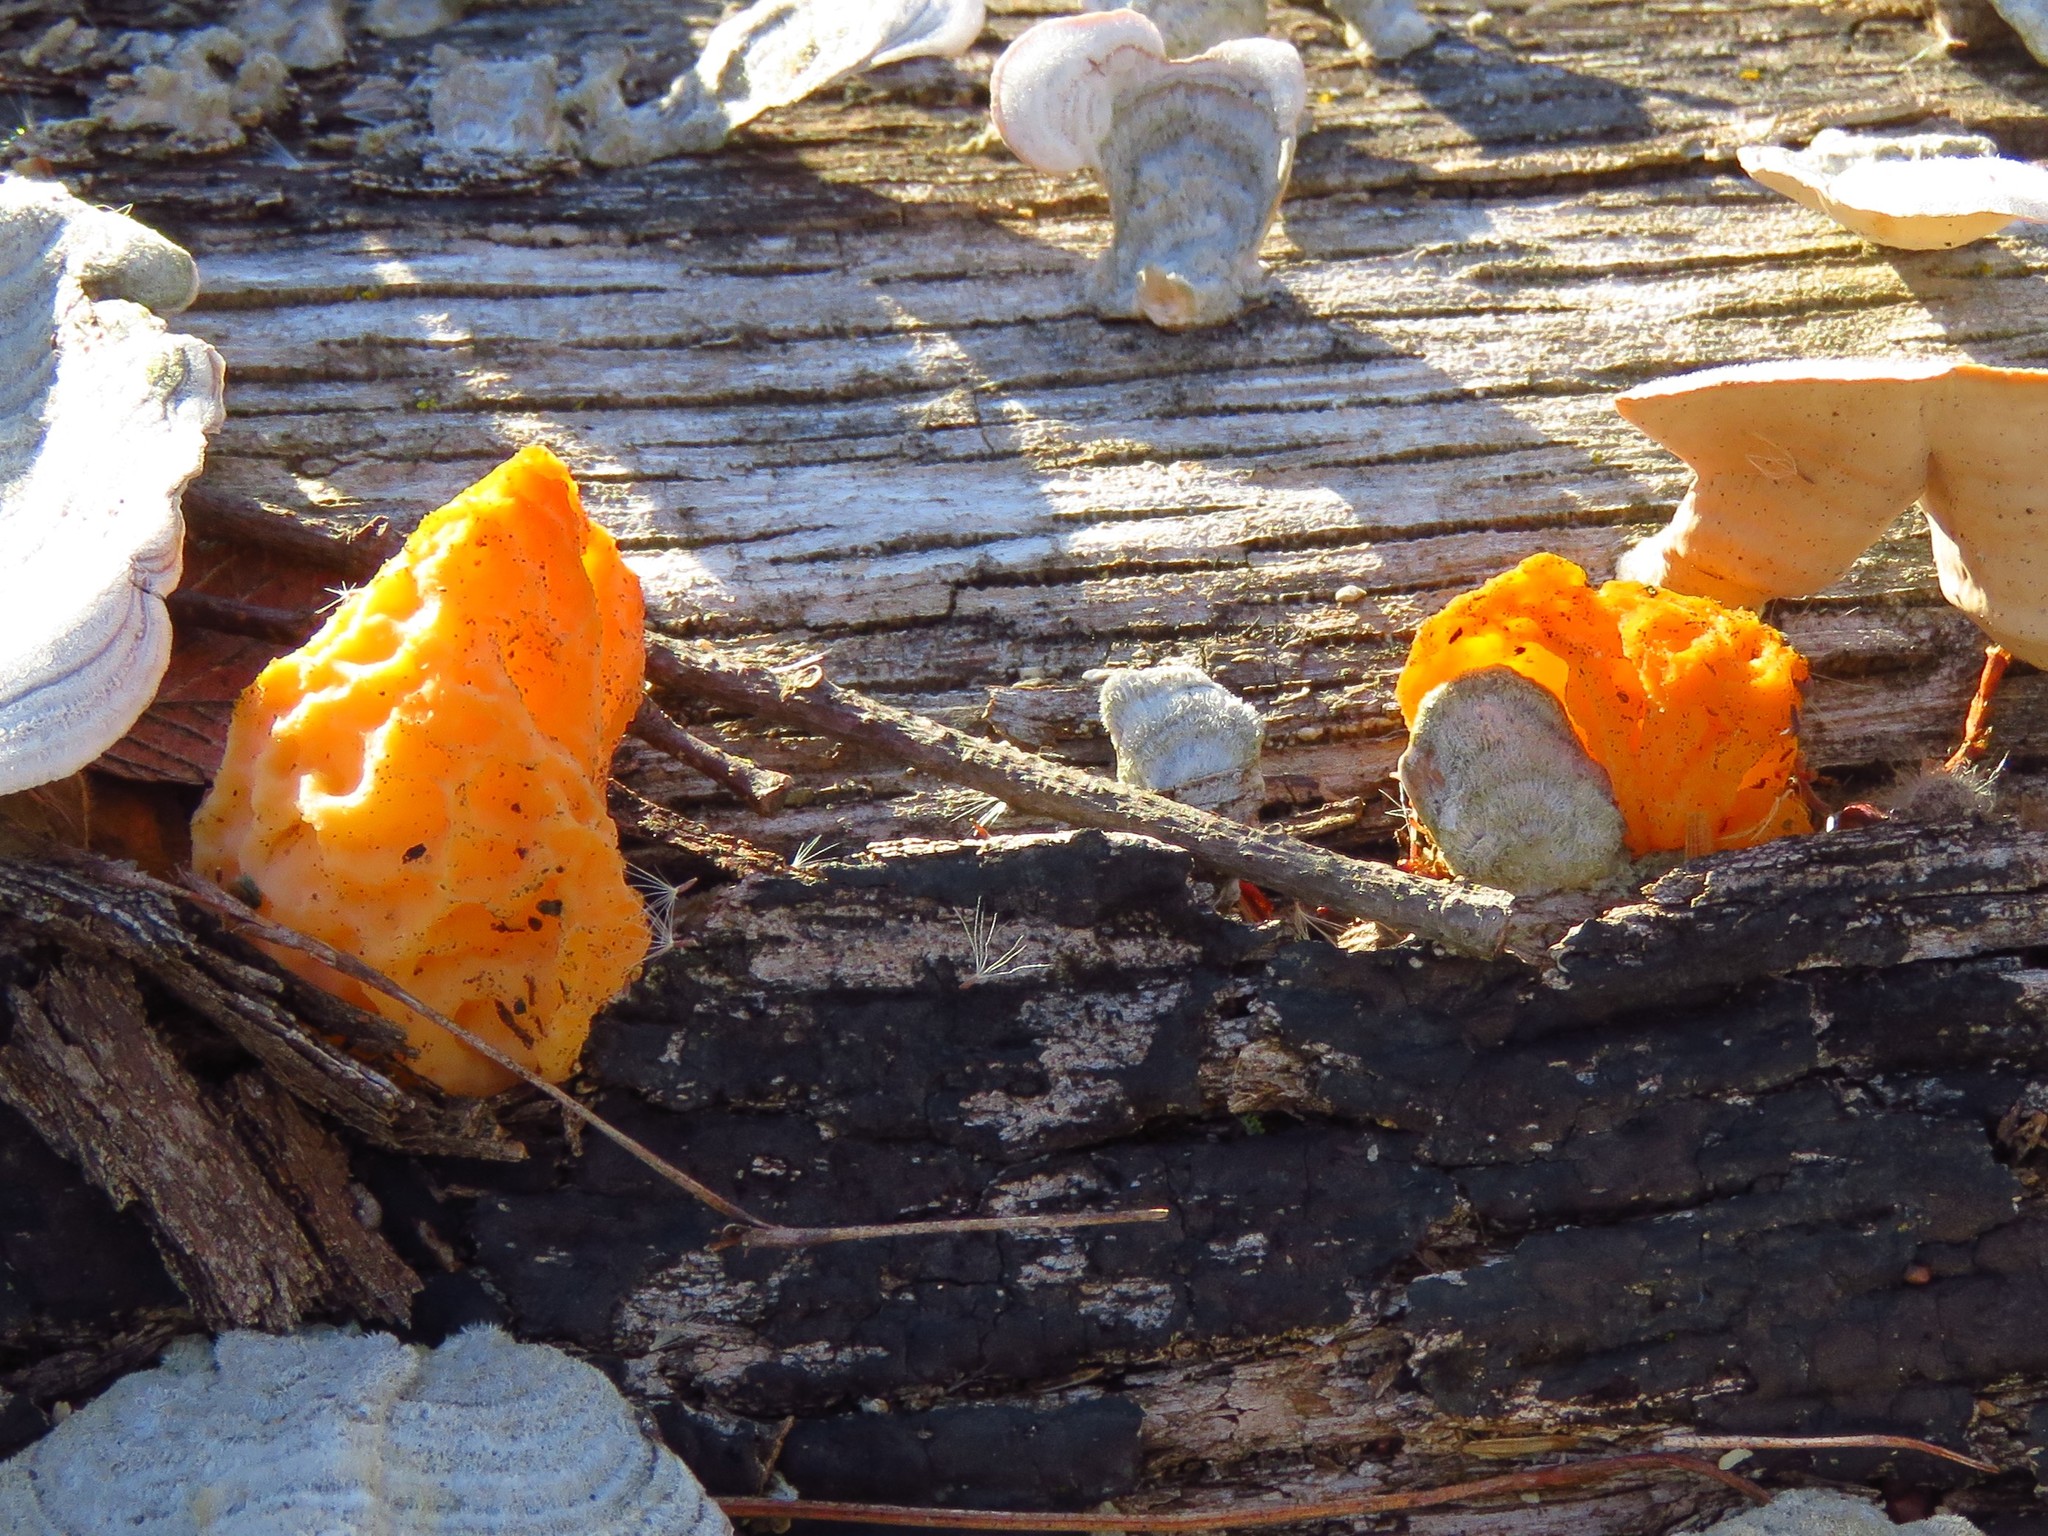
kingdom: Fungi
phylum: Basidiomycota
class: Tremellomycetes
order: Tremellales
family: Naemateliaceae
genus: Naematelia
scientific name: Naematelia aurantia
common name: Golden ear
